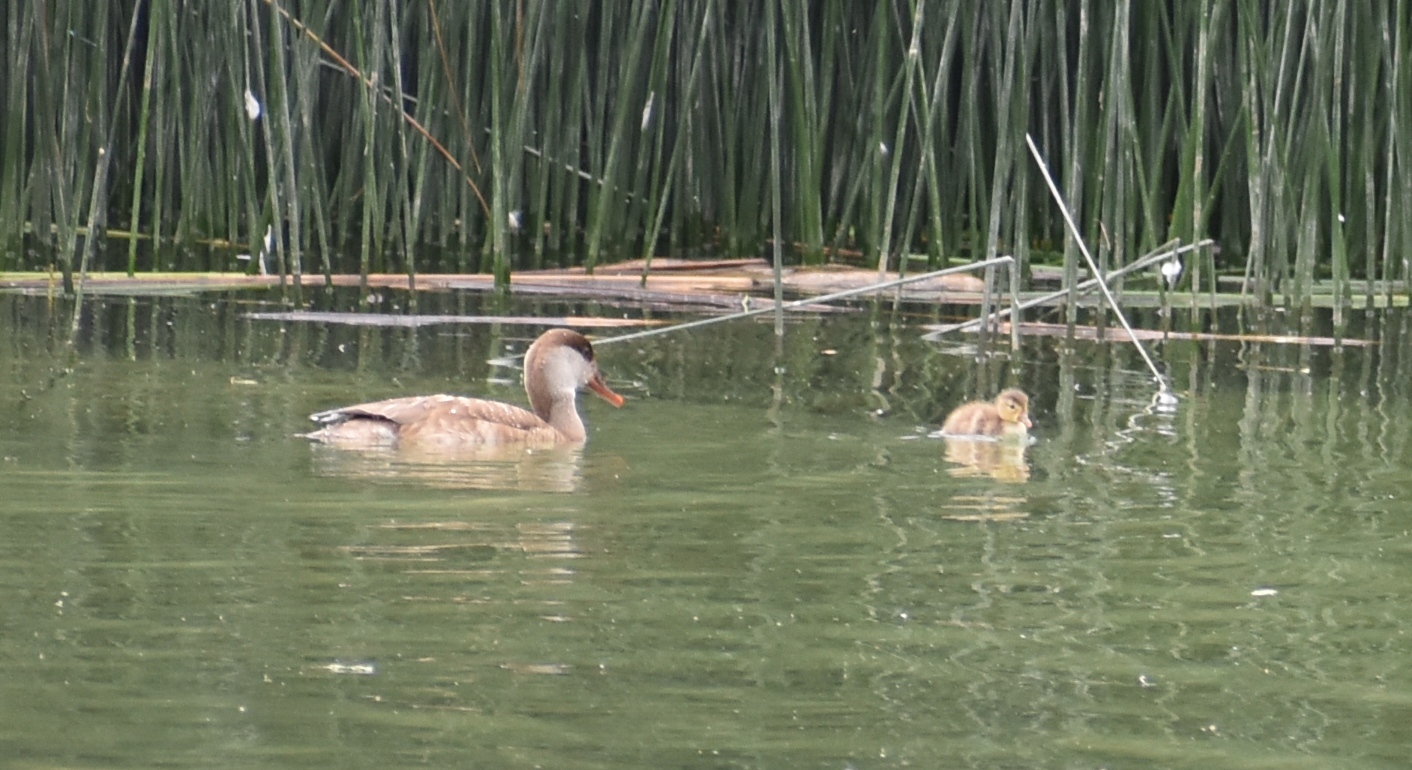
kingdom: Animalia
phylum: Chordata
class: Aves
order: Anseriformes
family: Anatidae
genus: Netta
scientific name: Netta rufina
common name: Red-crested pochard
